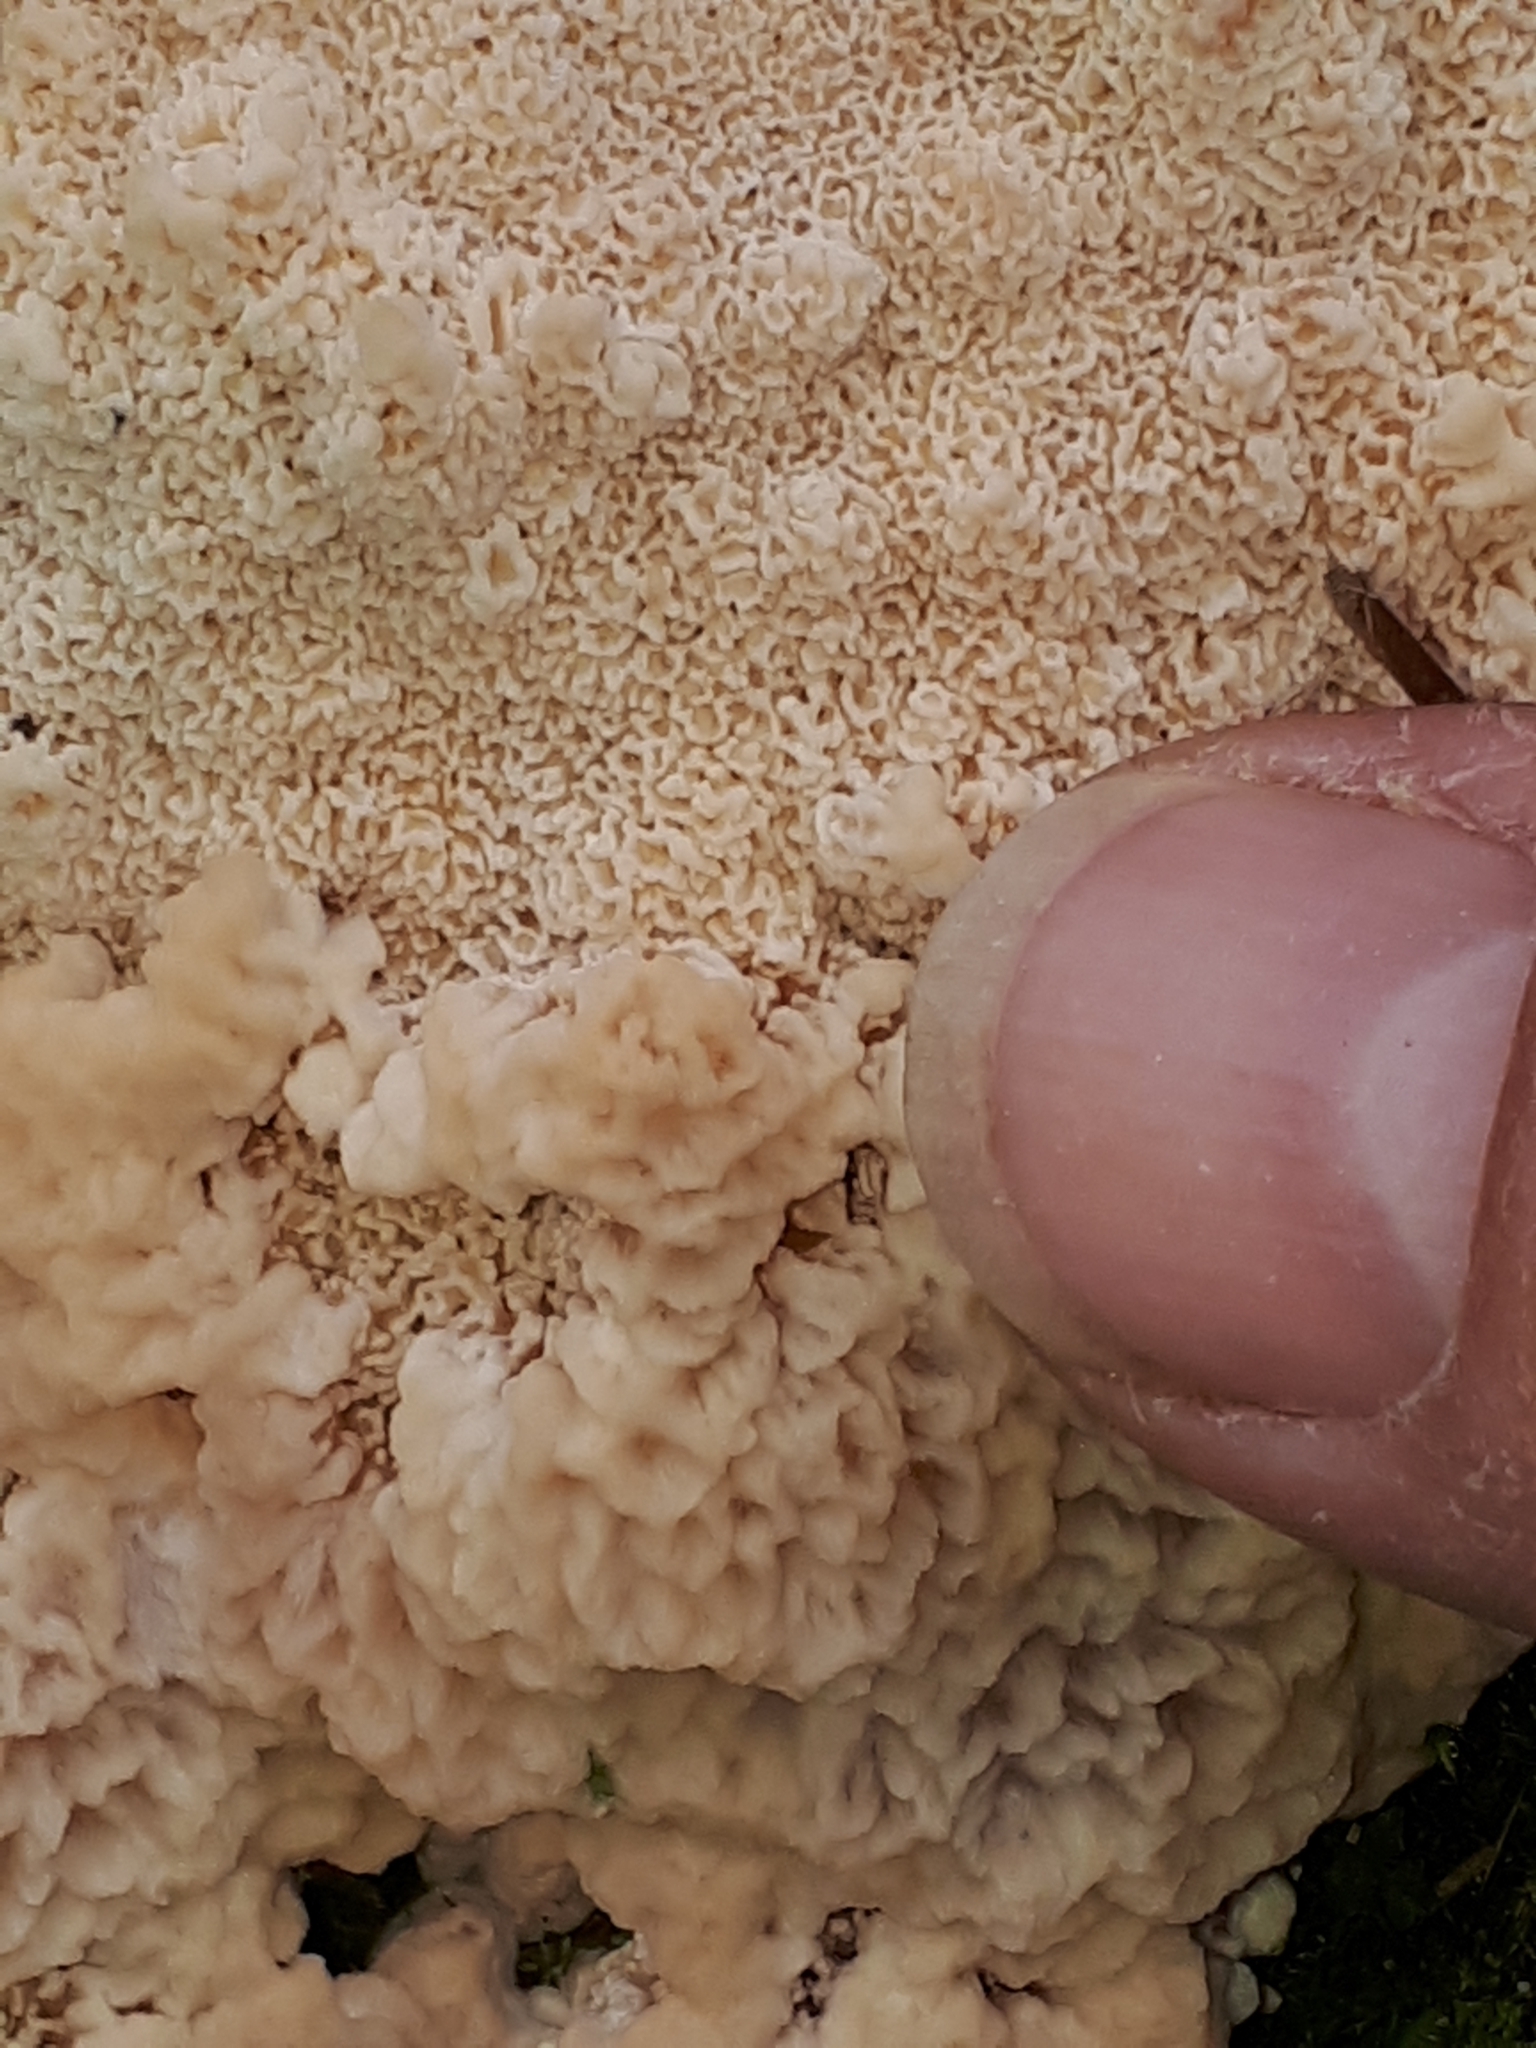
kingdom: Fungi
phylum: Basidiomycota
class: Agaricomycetes
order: Polyporales
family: Podoscyphaceae
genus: Abortiporus
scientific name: Abortiporus biennis
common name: Blushing rosette
